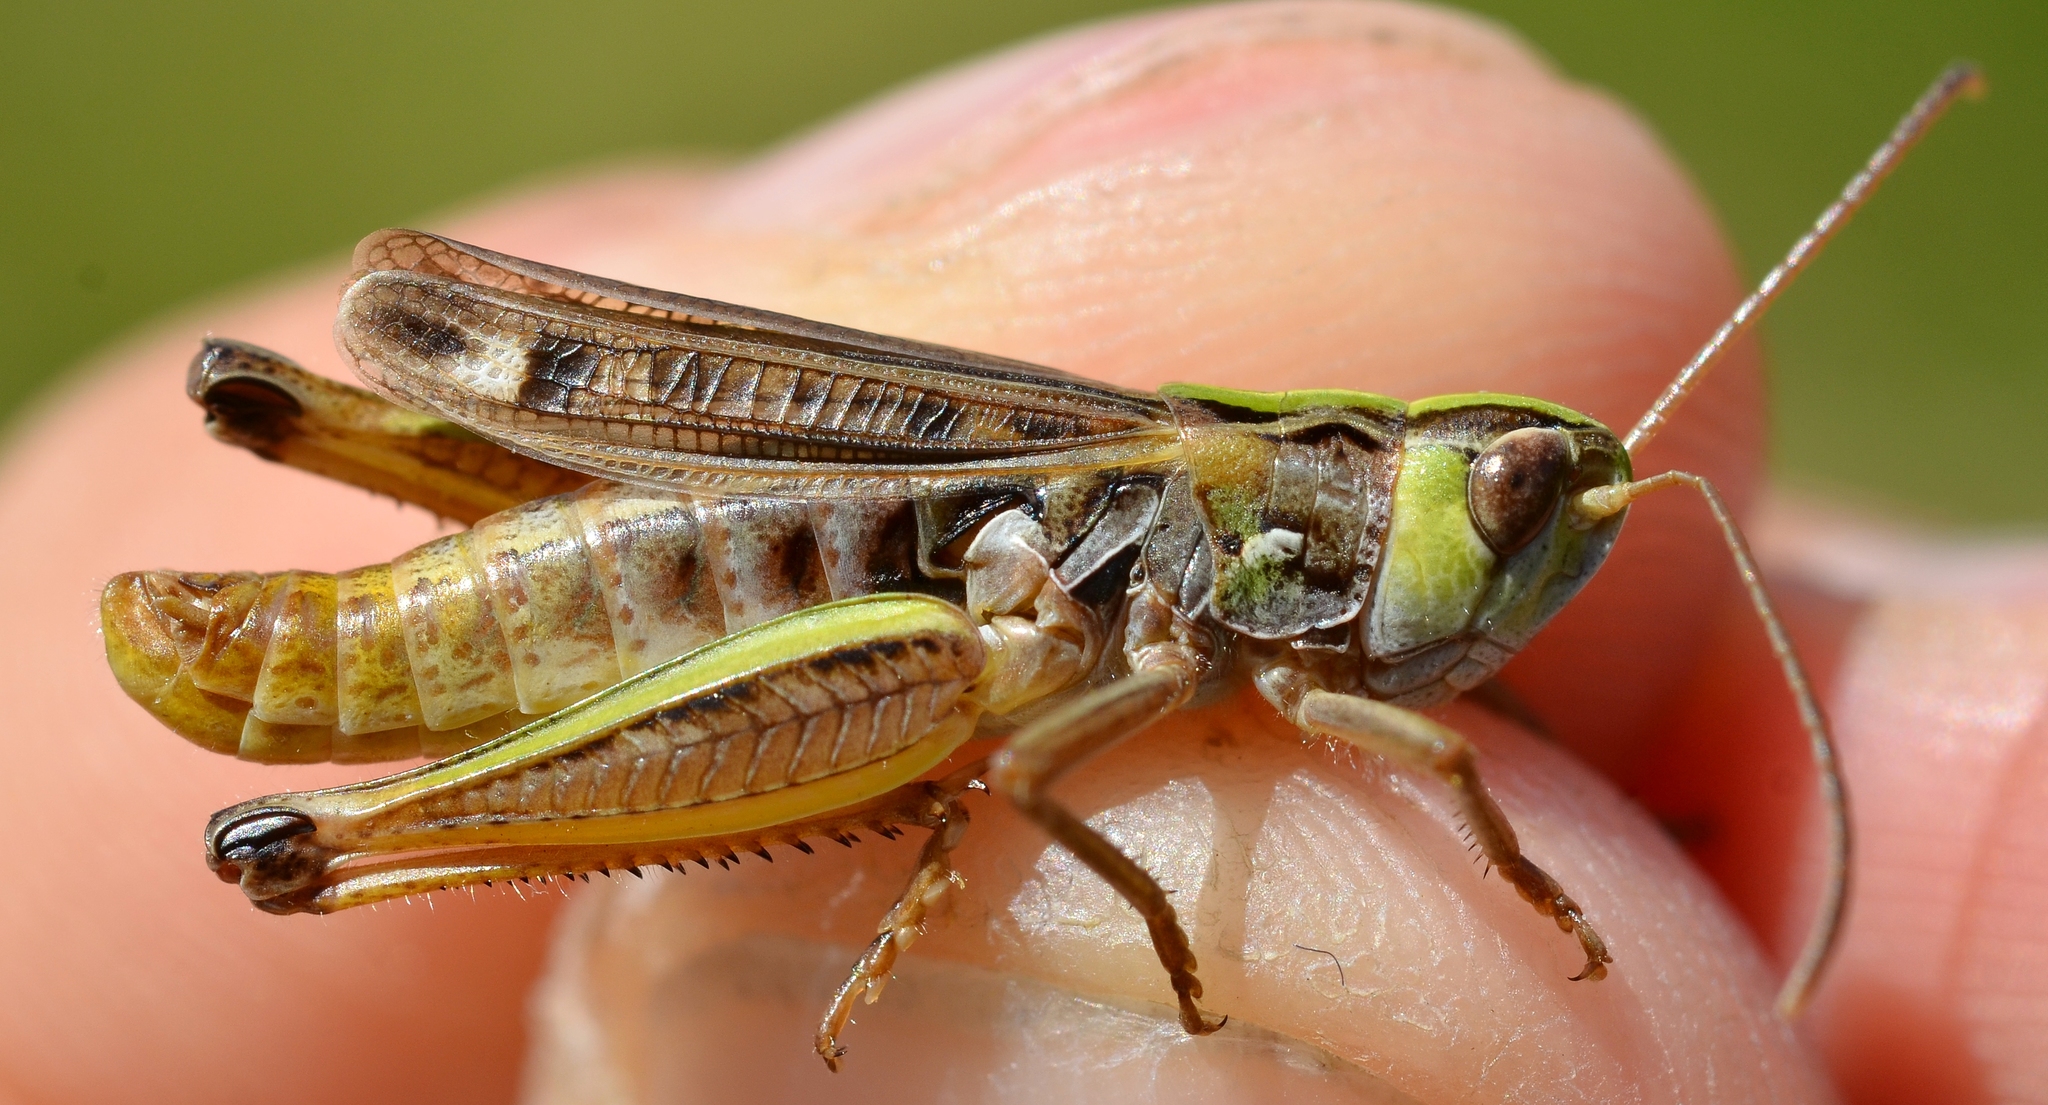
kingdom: Animalia
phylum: Arthropoda
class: Insecta
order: Orthoptera
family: Acrididae
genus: Stenobothrus
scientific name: Stenobothrus nigromaculatus
